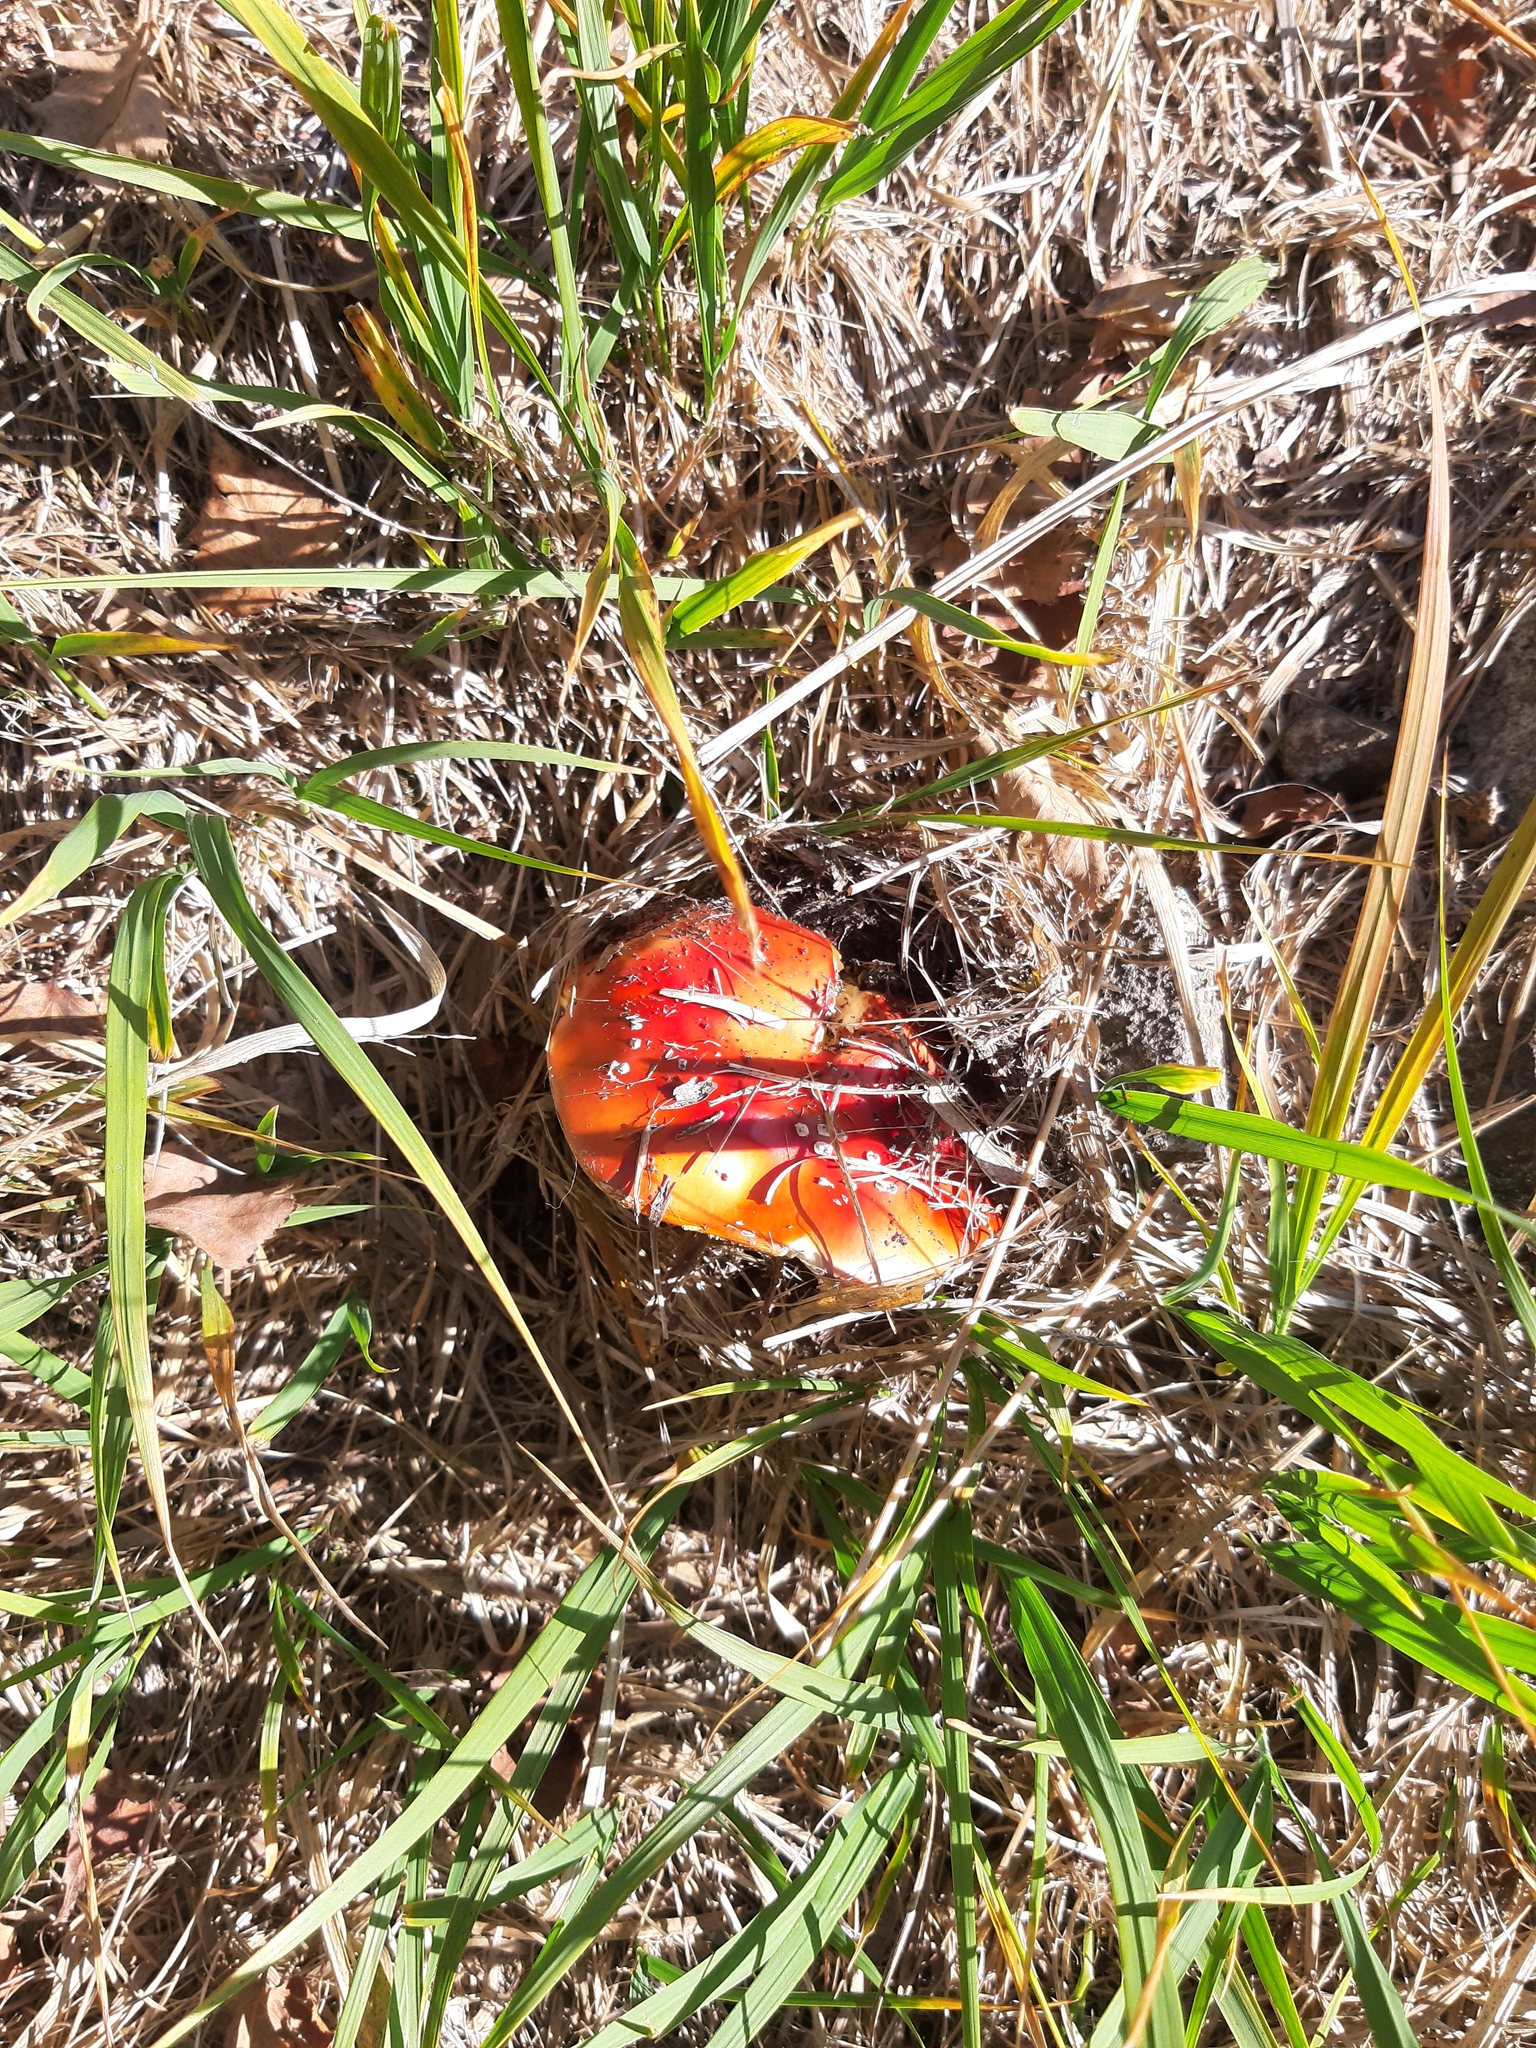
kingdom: Fungi
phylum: Basidiomycota
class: Agaricomycetes
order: Agaricales
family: Amanitaceae
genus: Amanita
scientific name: Amanita muscaria
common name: Fly agaric
